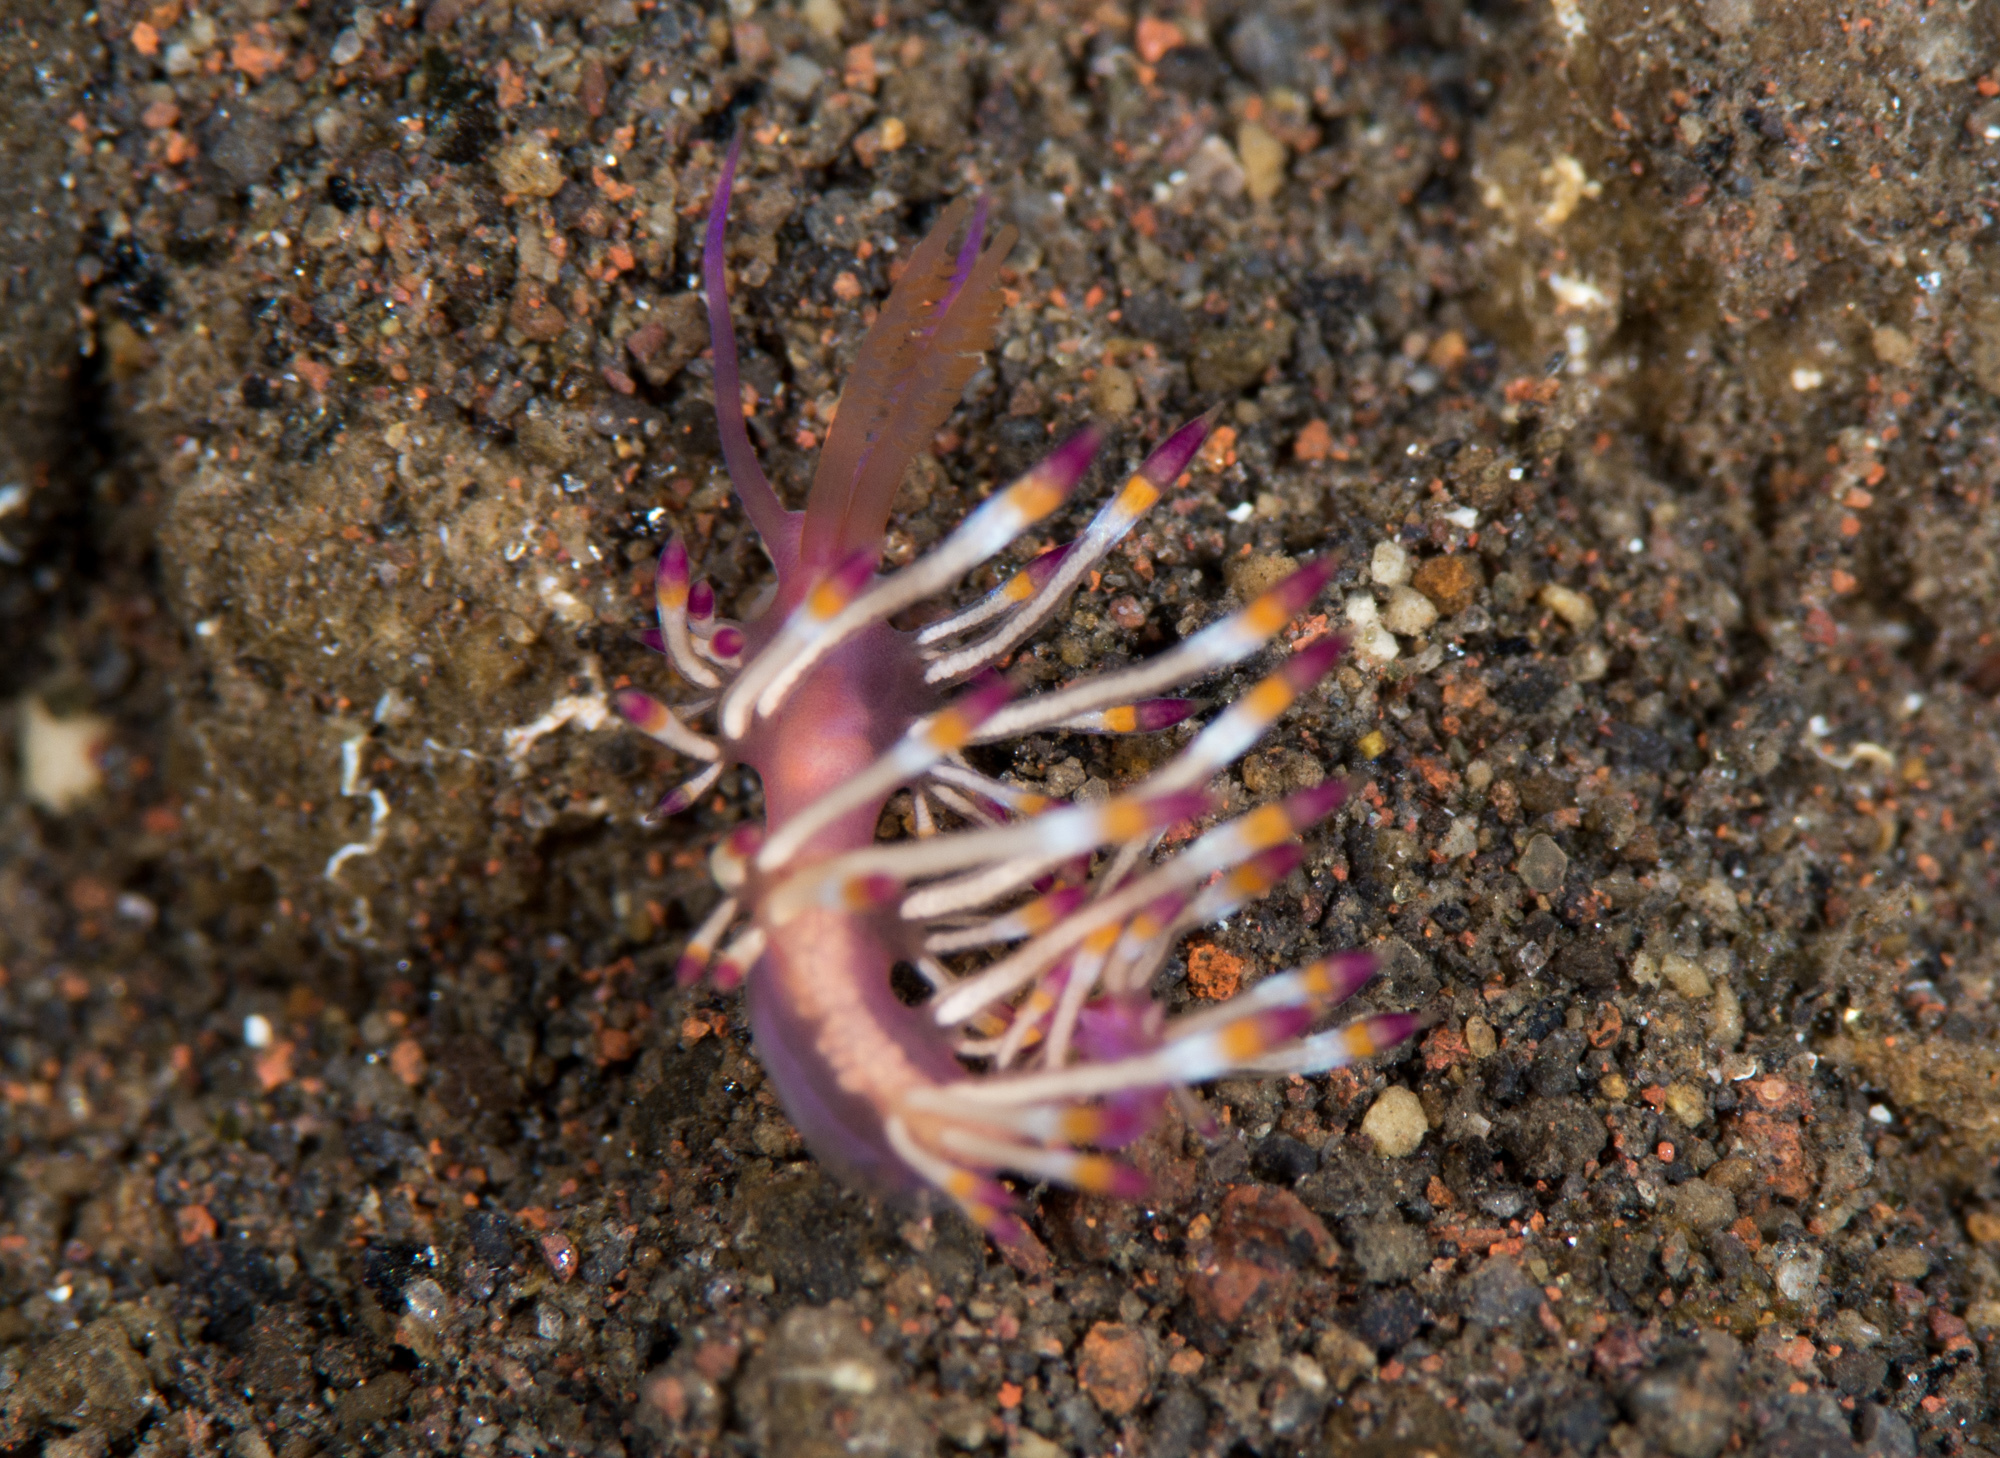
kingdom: Animalia
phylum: Mollusca
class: Gastropoda
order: Nudibranchia
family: Flabellinidae
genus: Coryphellina
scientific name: Coryphellina delicata
